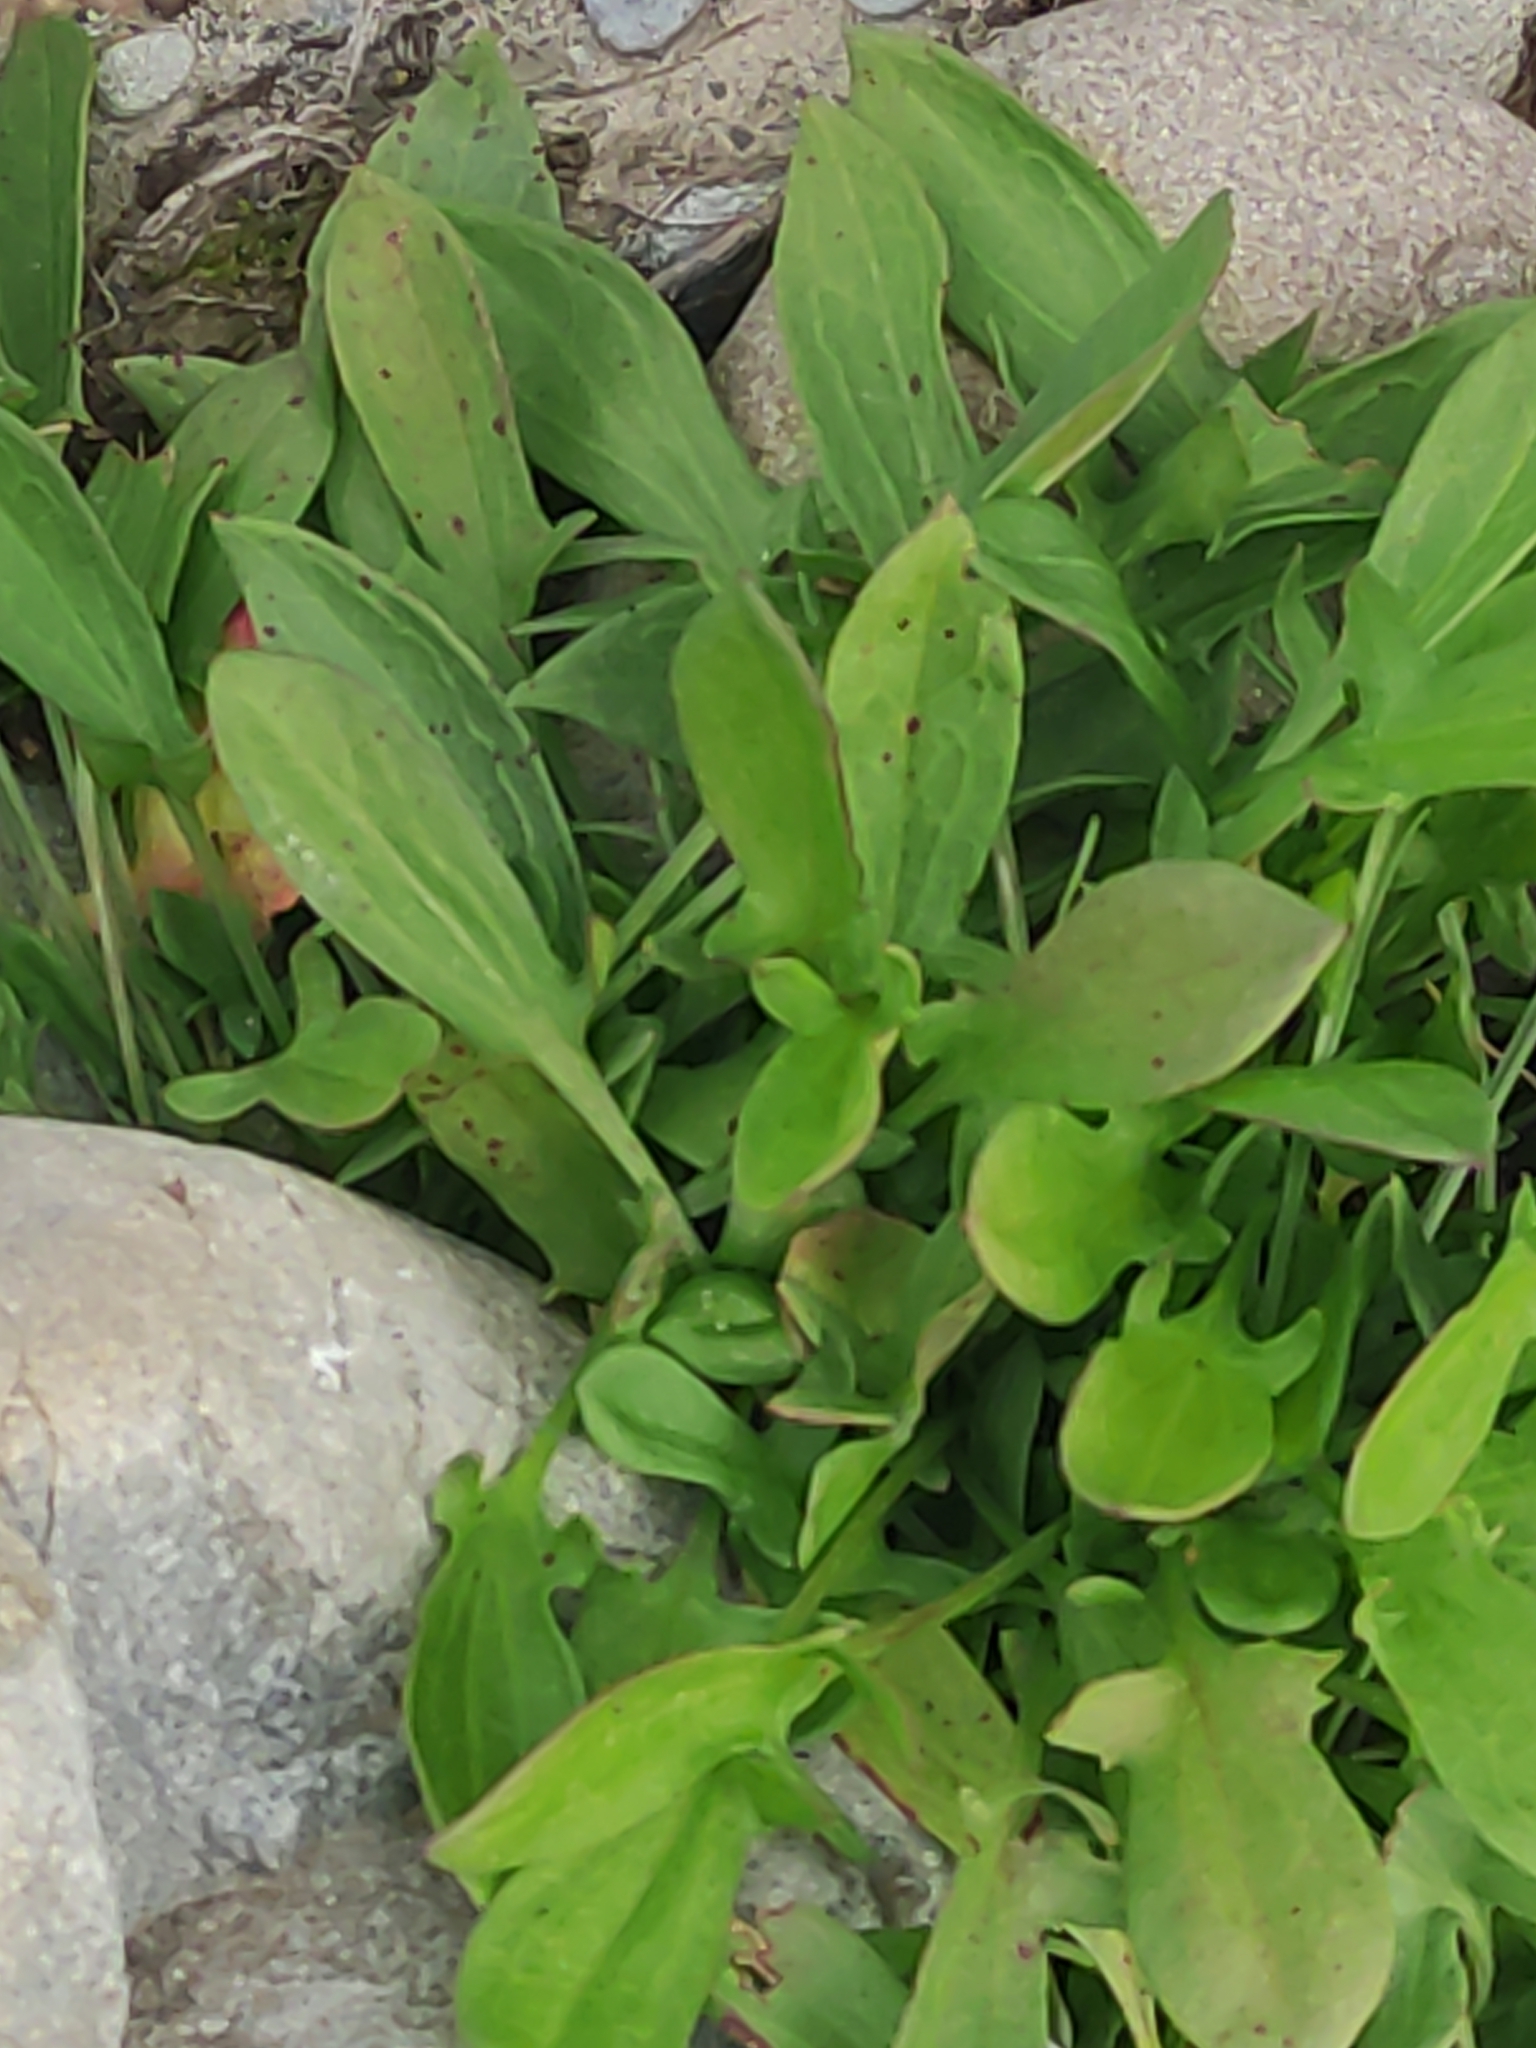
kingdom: Plantae
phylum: Tracheophyta
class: Magnoliopsida
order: Caryophyllales
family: Polygonaceae
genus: Rumex
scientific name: Rumex acetosella
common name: Common sheep sorrel
